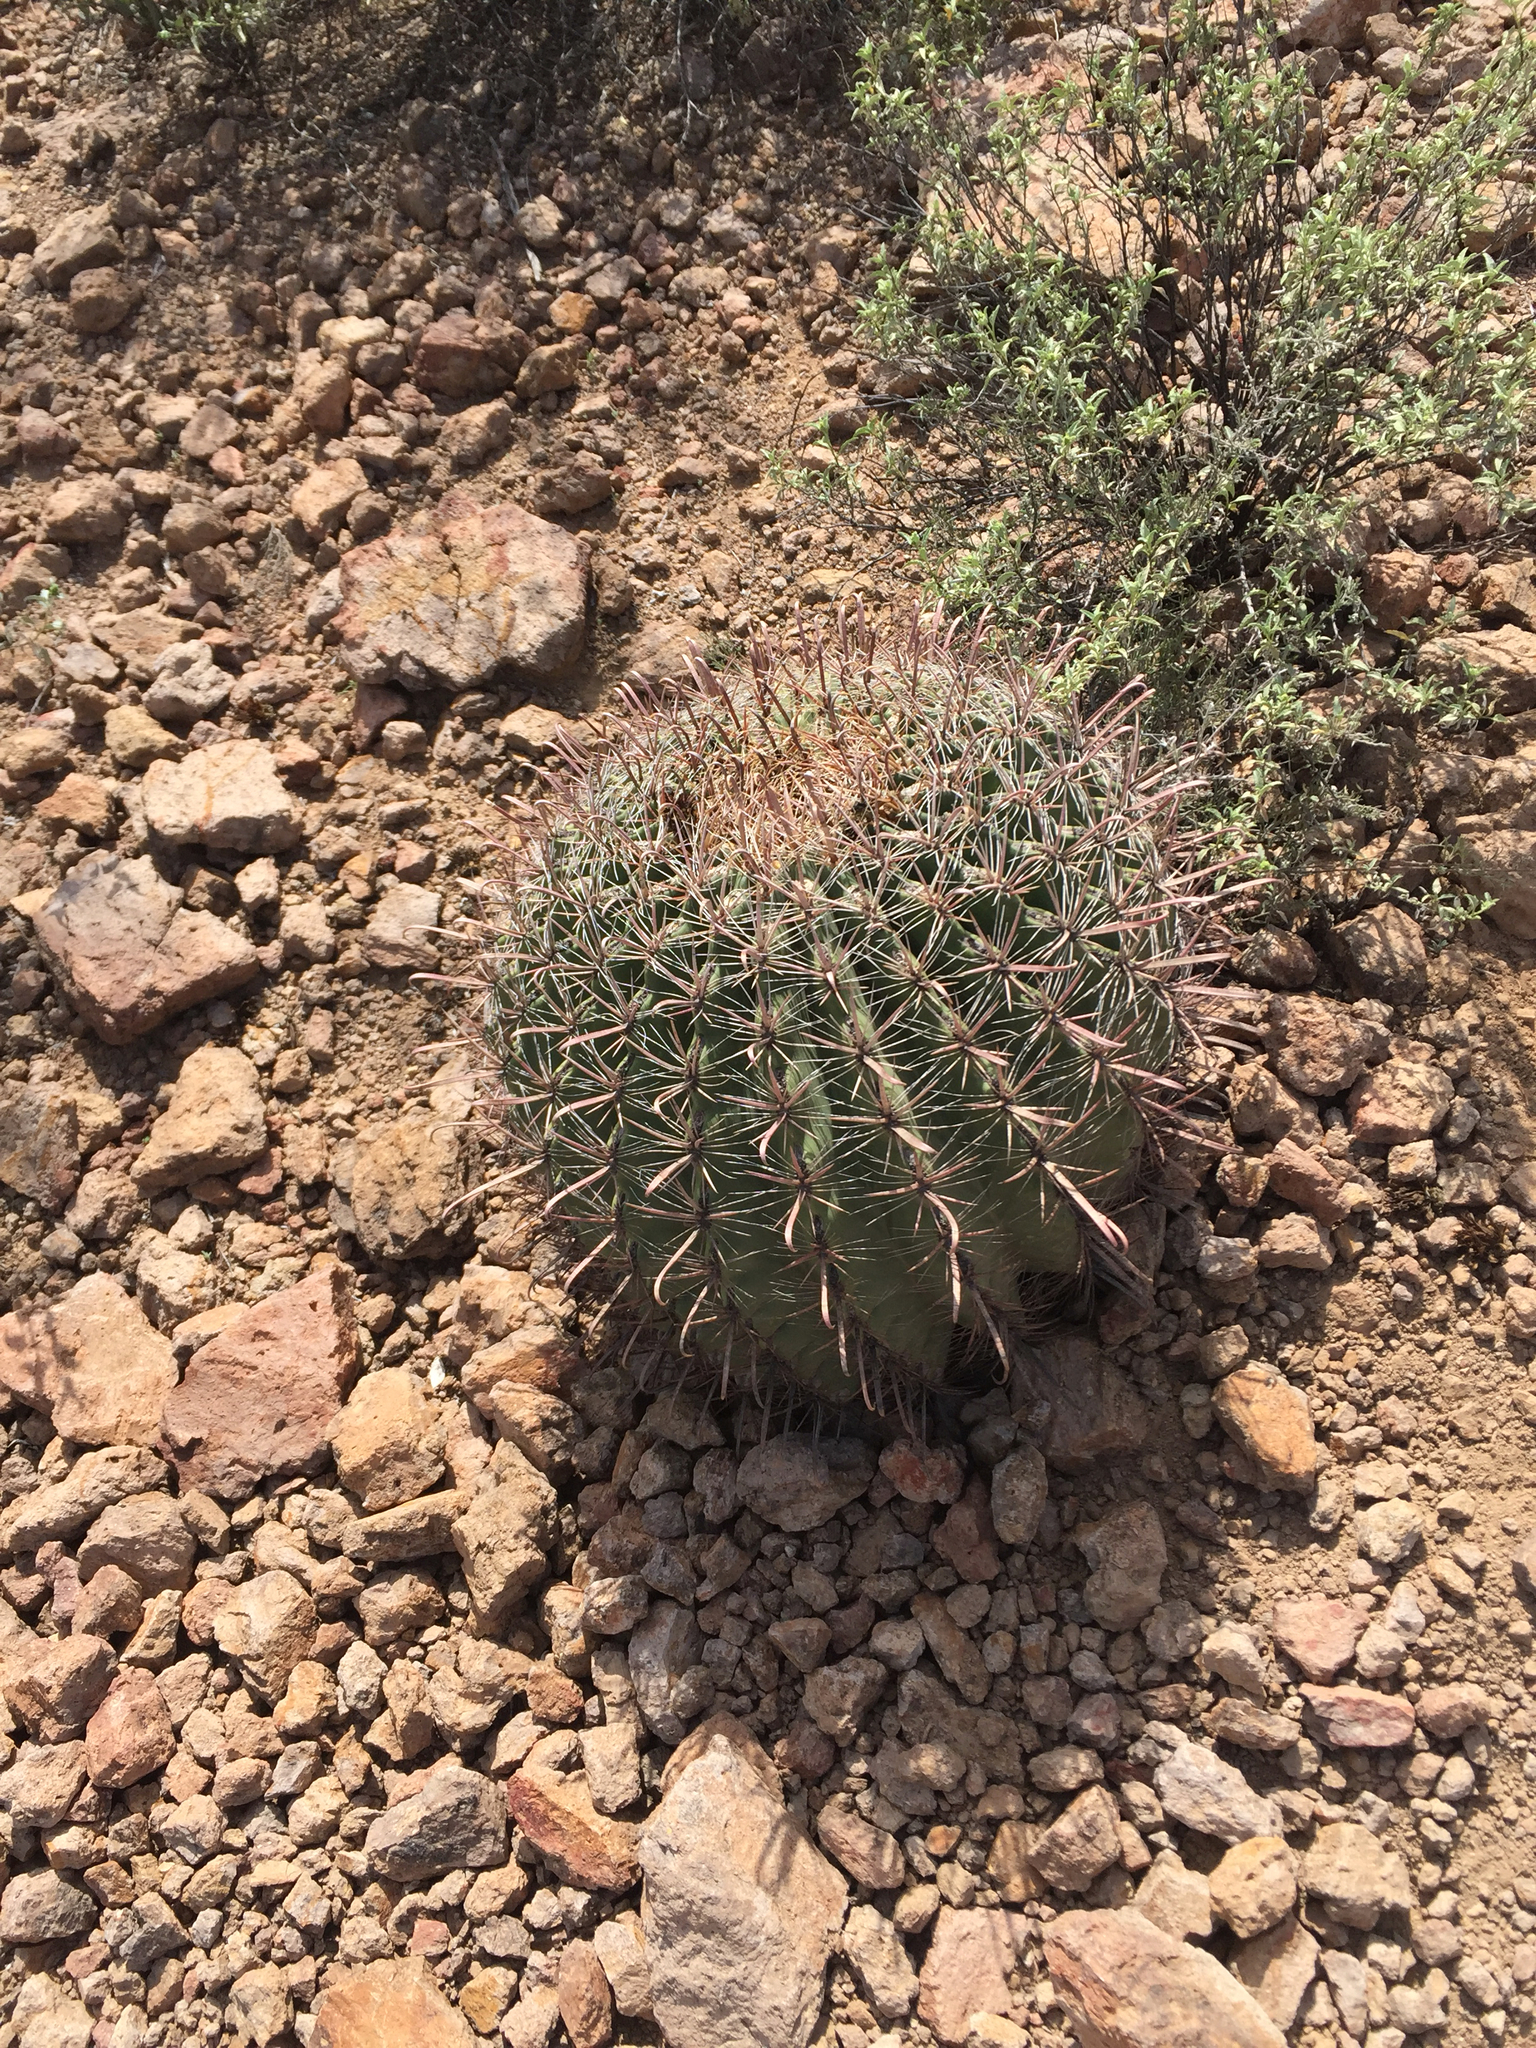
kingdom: Plantae
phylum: Tracheophyta
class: Magnoliopsida
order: Caryophyllales
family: Cactaceae
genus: Ferocactus
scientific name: Ferocactus wislizeni
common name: Candy barrel cactus
